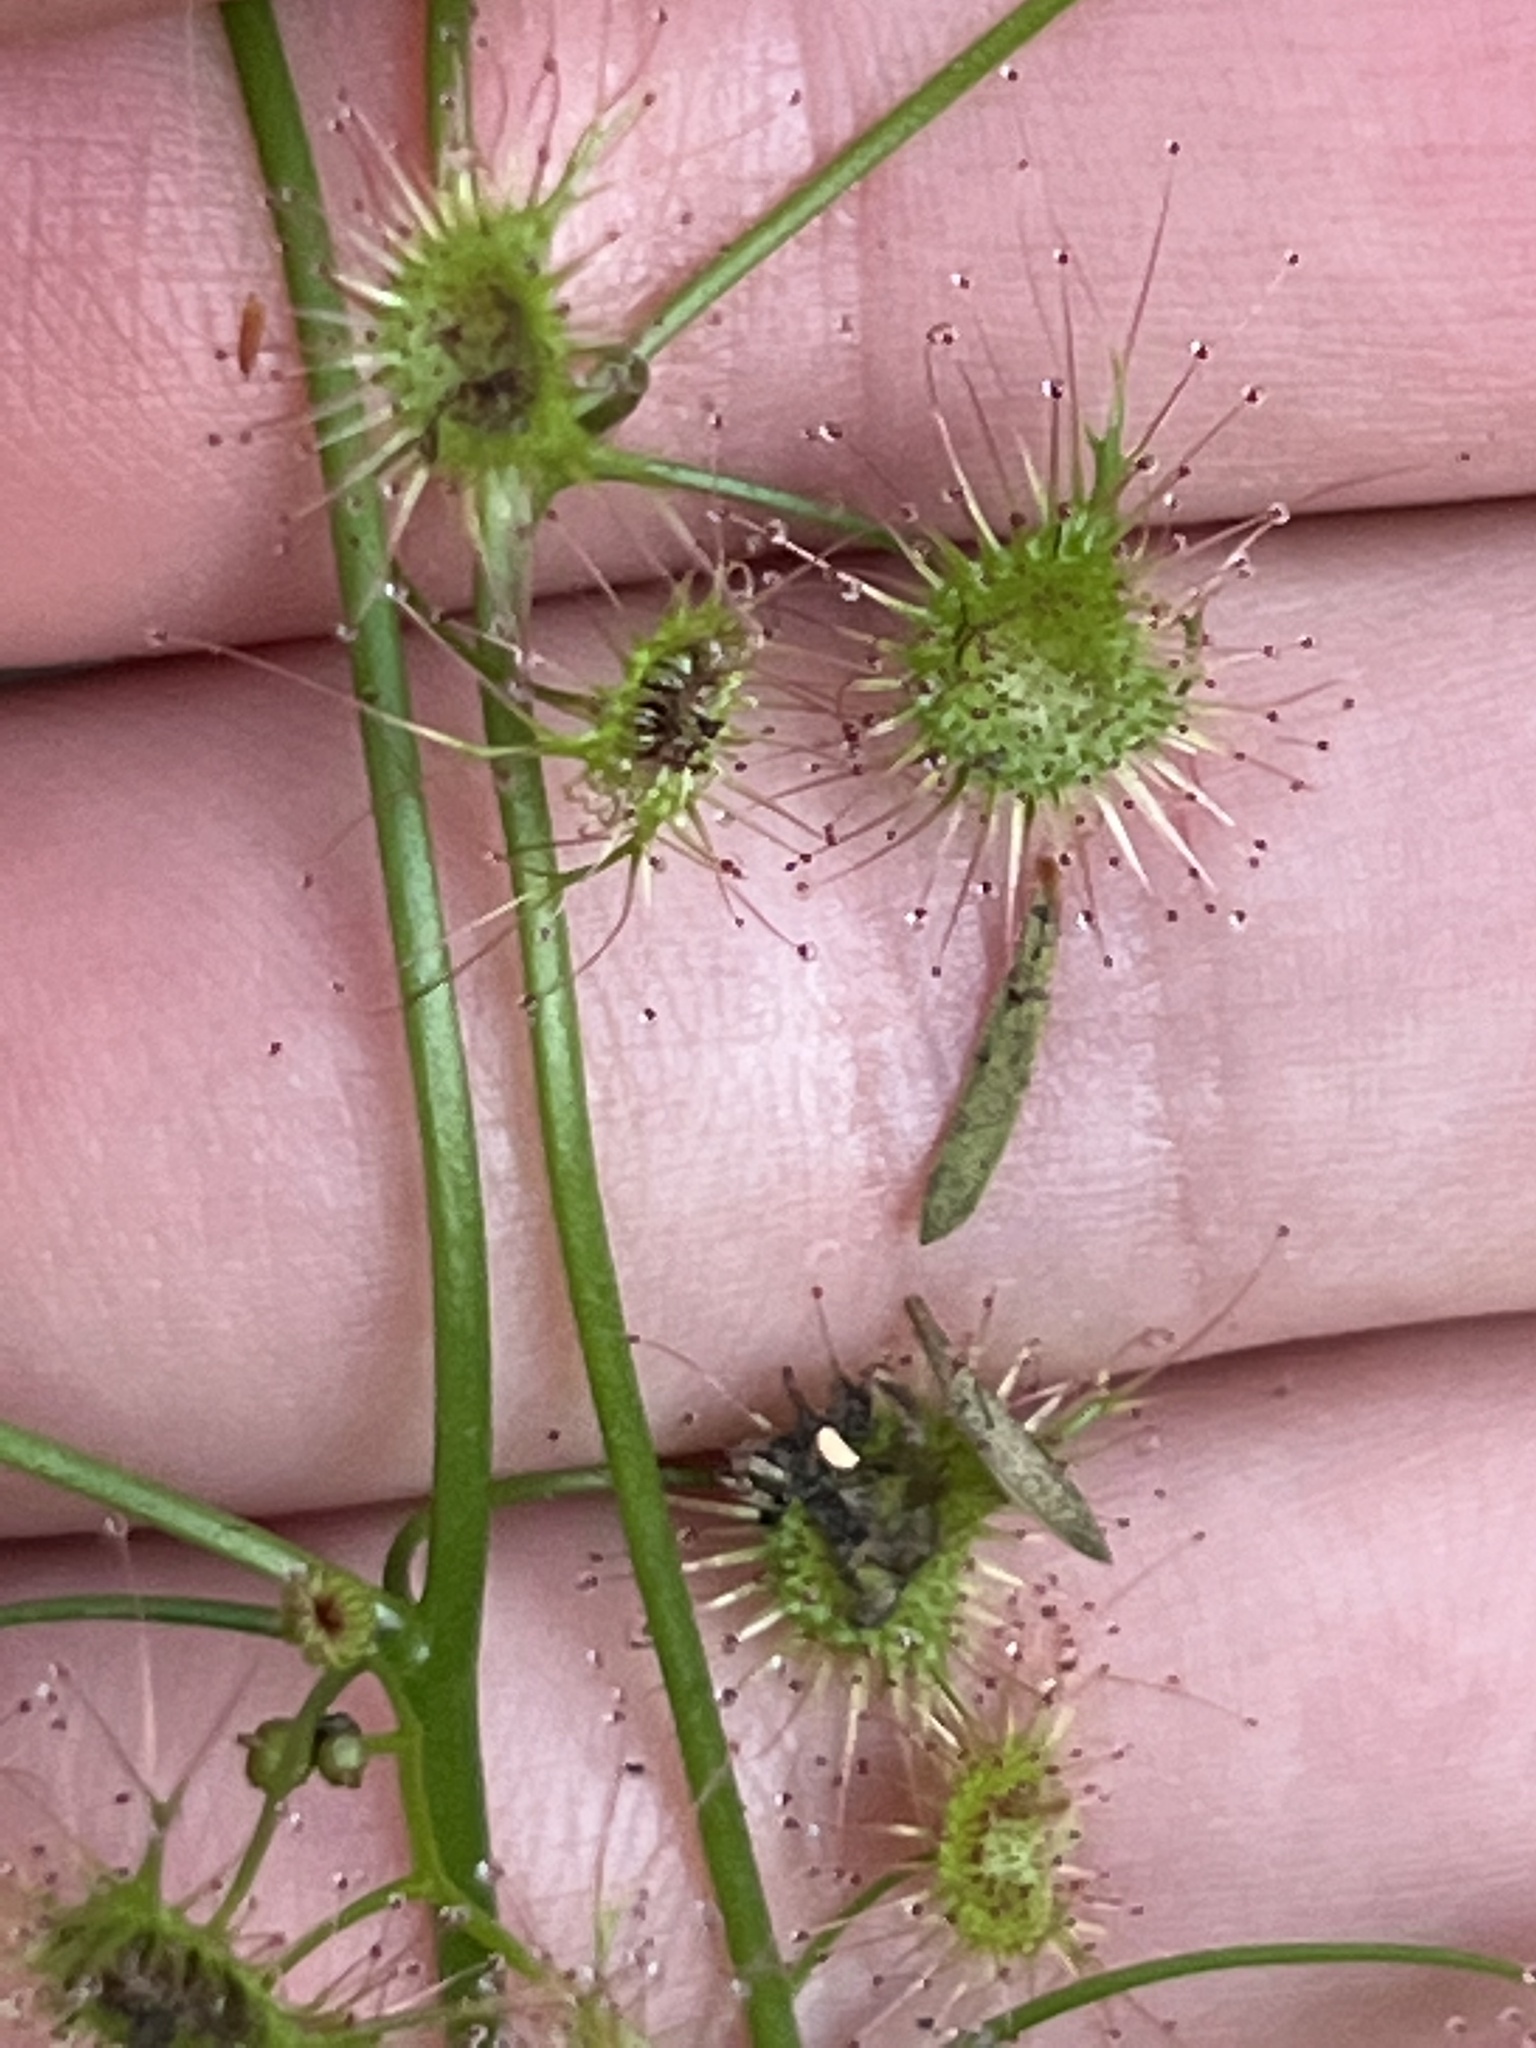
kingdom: Plantae
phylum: Tracheophyta
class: Magnoliopsida
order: Caryophyllales
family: Droseraceae
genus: Drosera
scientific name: Drosera peltata
